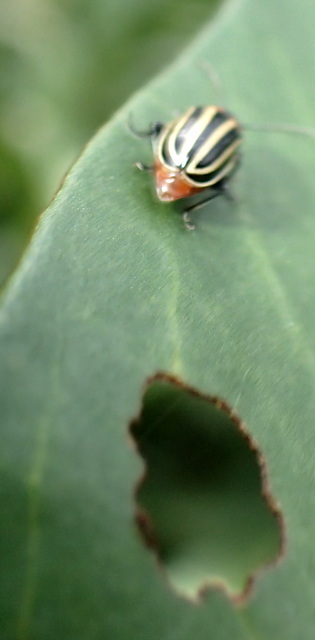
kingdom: Animalia
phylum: Arthropoda
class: Insecta
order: Coleoptera
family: Chrysomelidae
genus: Disonycha
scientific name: Disonycha pensylvanica
